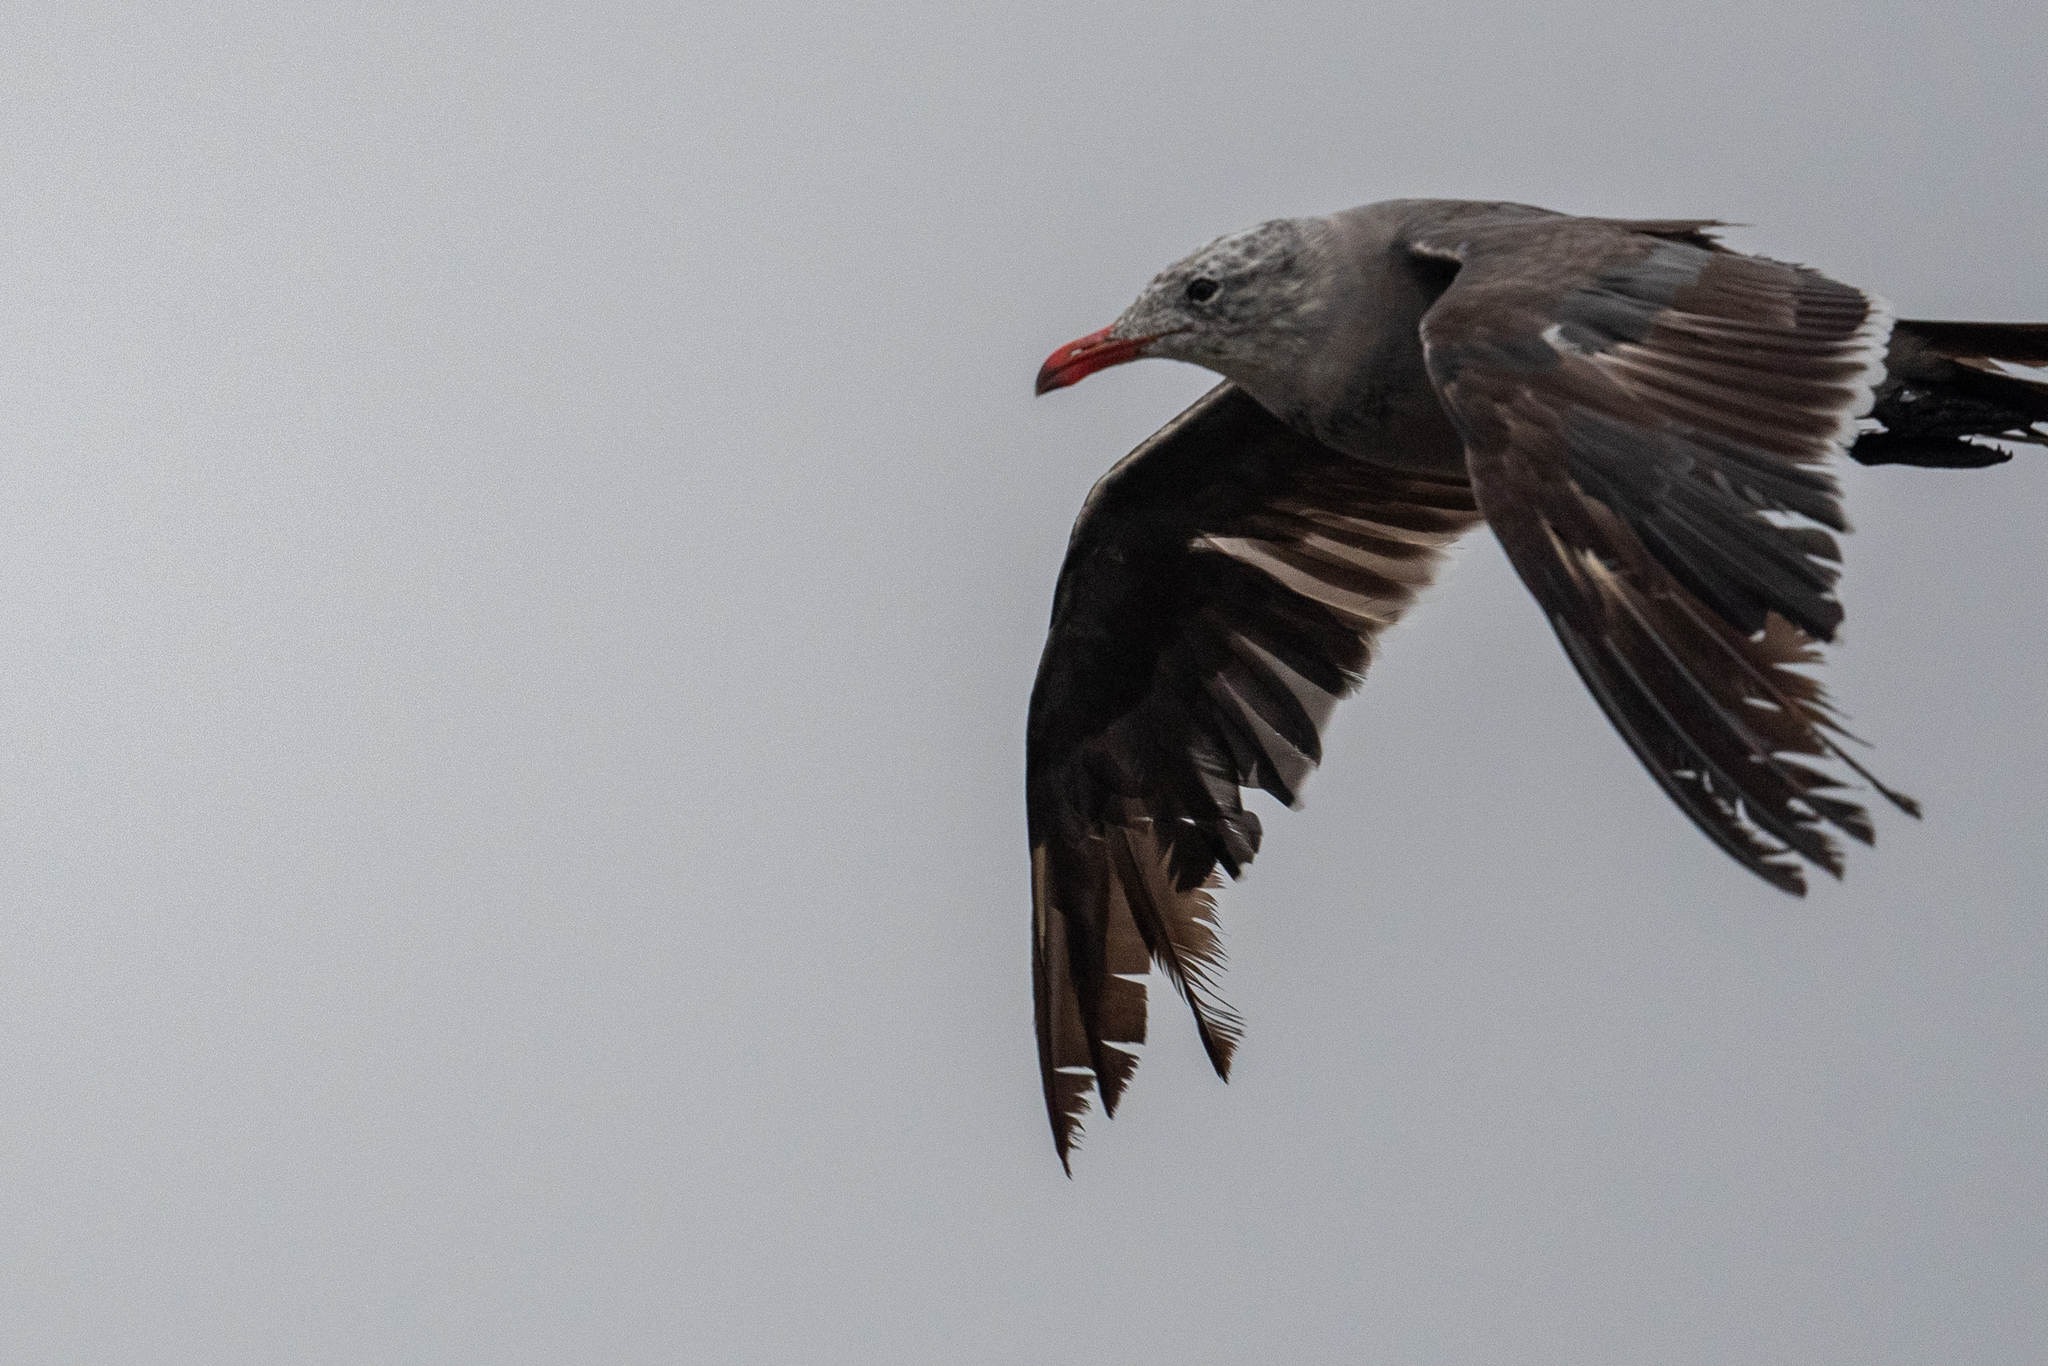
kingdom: Animalia
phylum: Chordata
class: Aves
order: Charadriiformes
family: Laridae
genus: Larus
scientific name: Larus heermanni
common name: Heermann's gull
